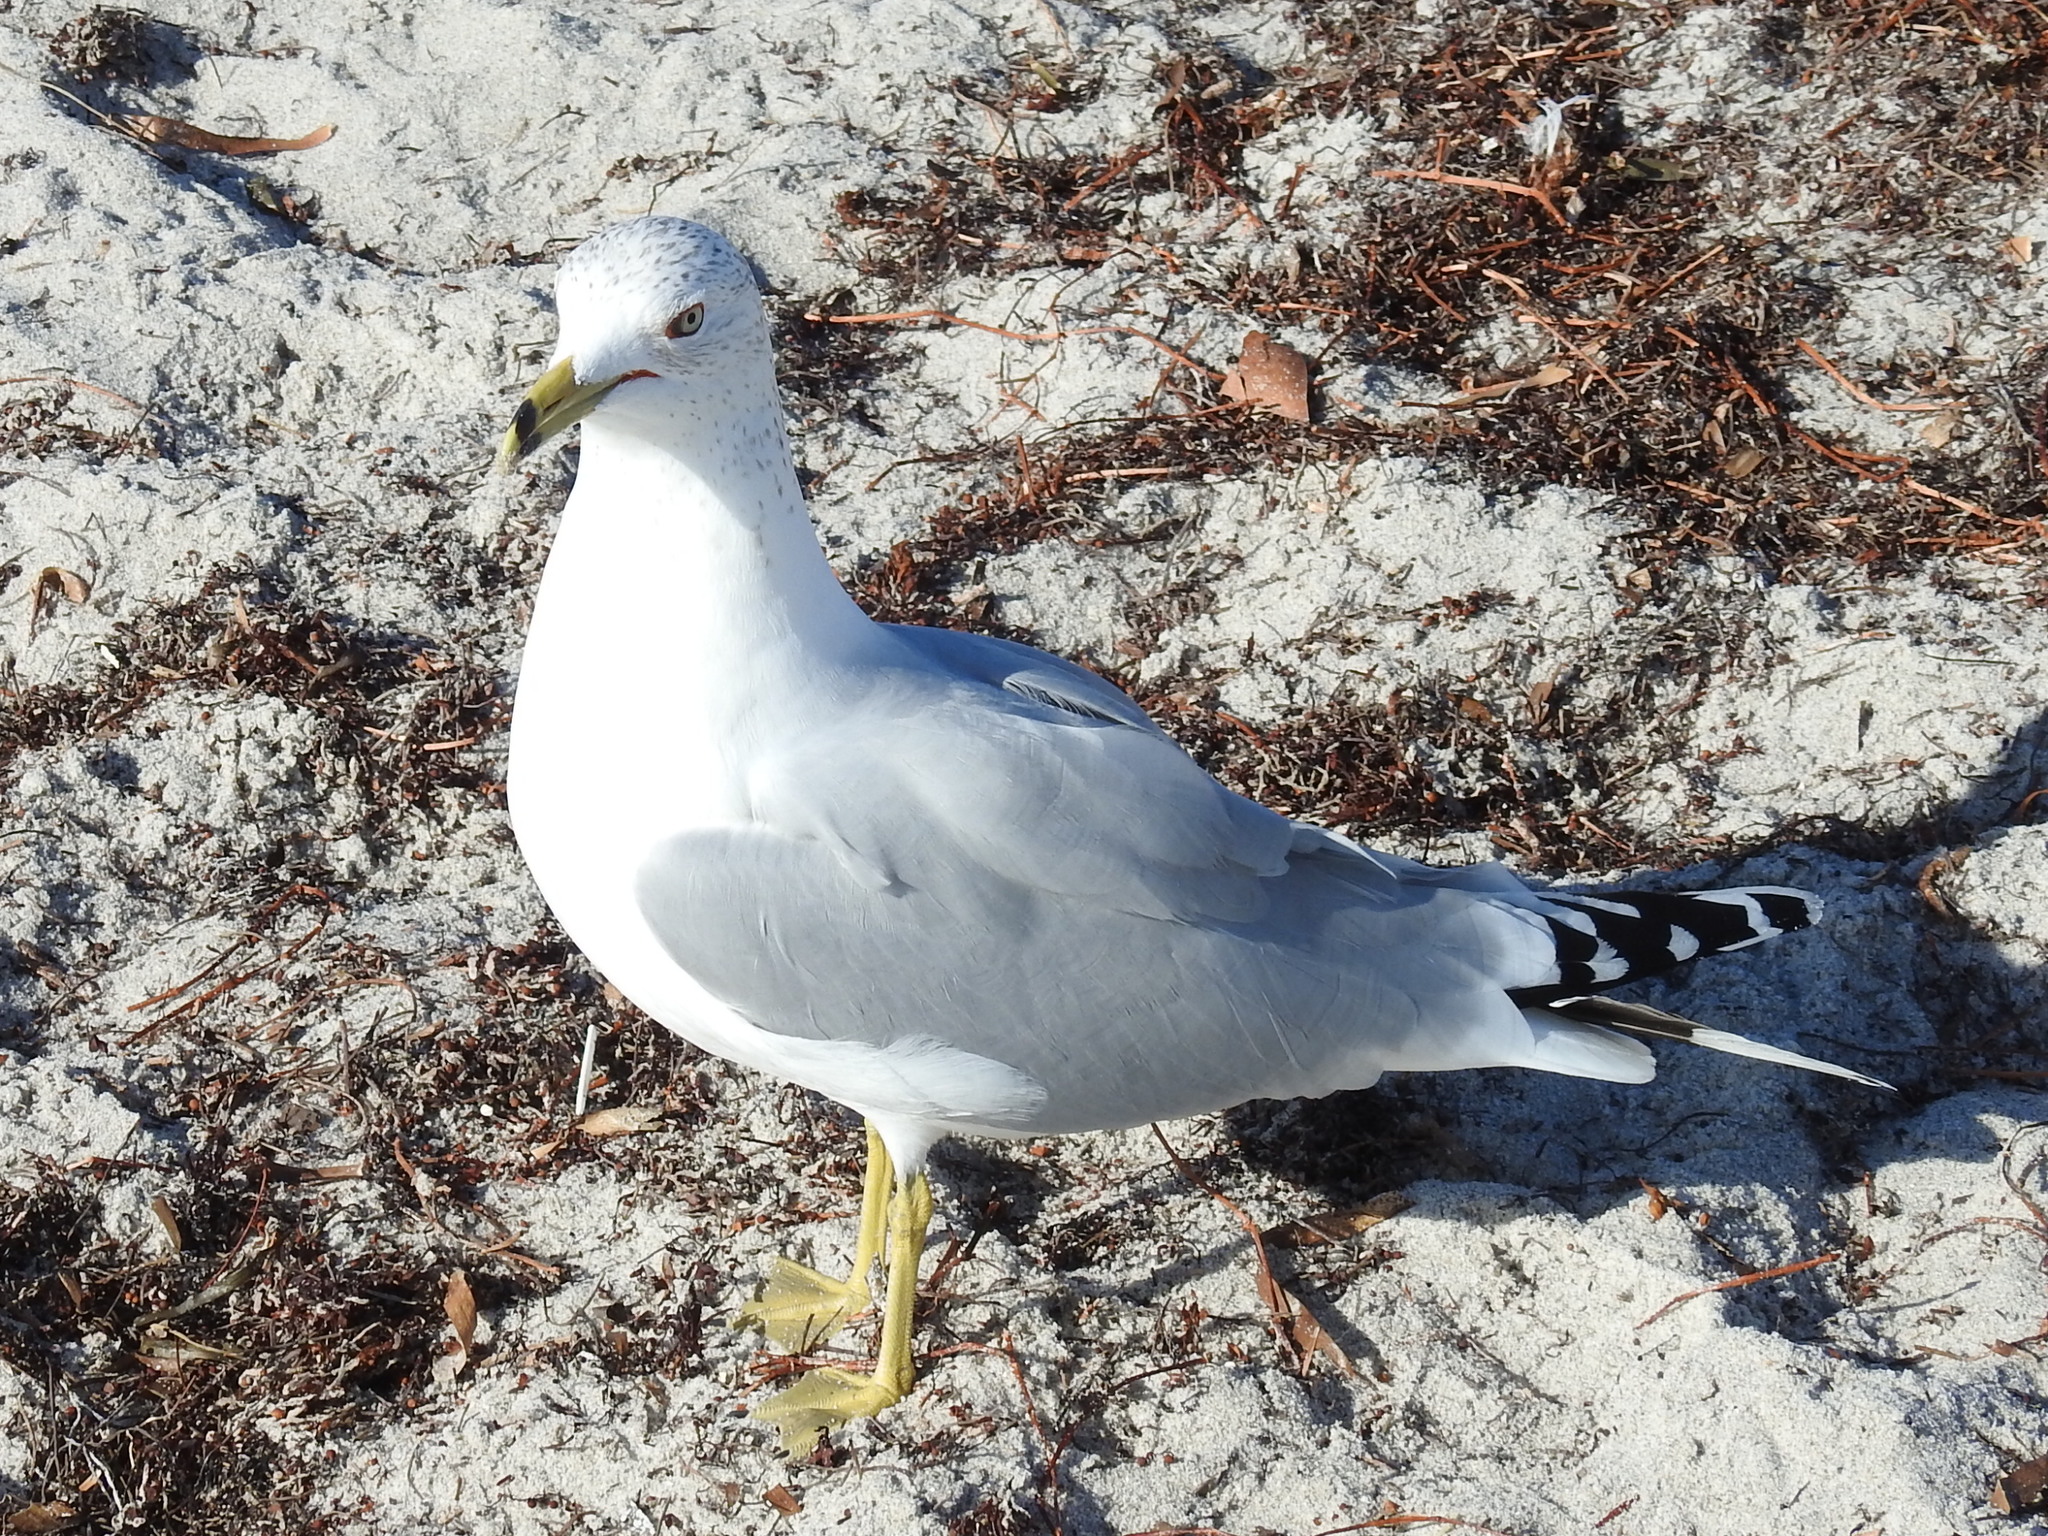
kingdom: Animalia
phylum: Chordata
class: Aves
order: Charadriiformes
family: Laridae
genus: Larus
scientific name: Larus delawarensis
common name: Ring-billed gull
